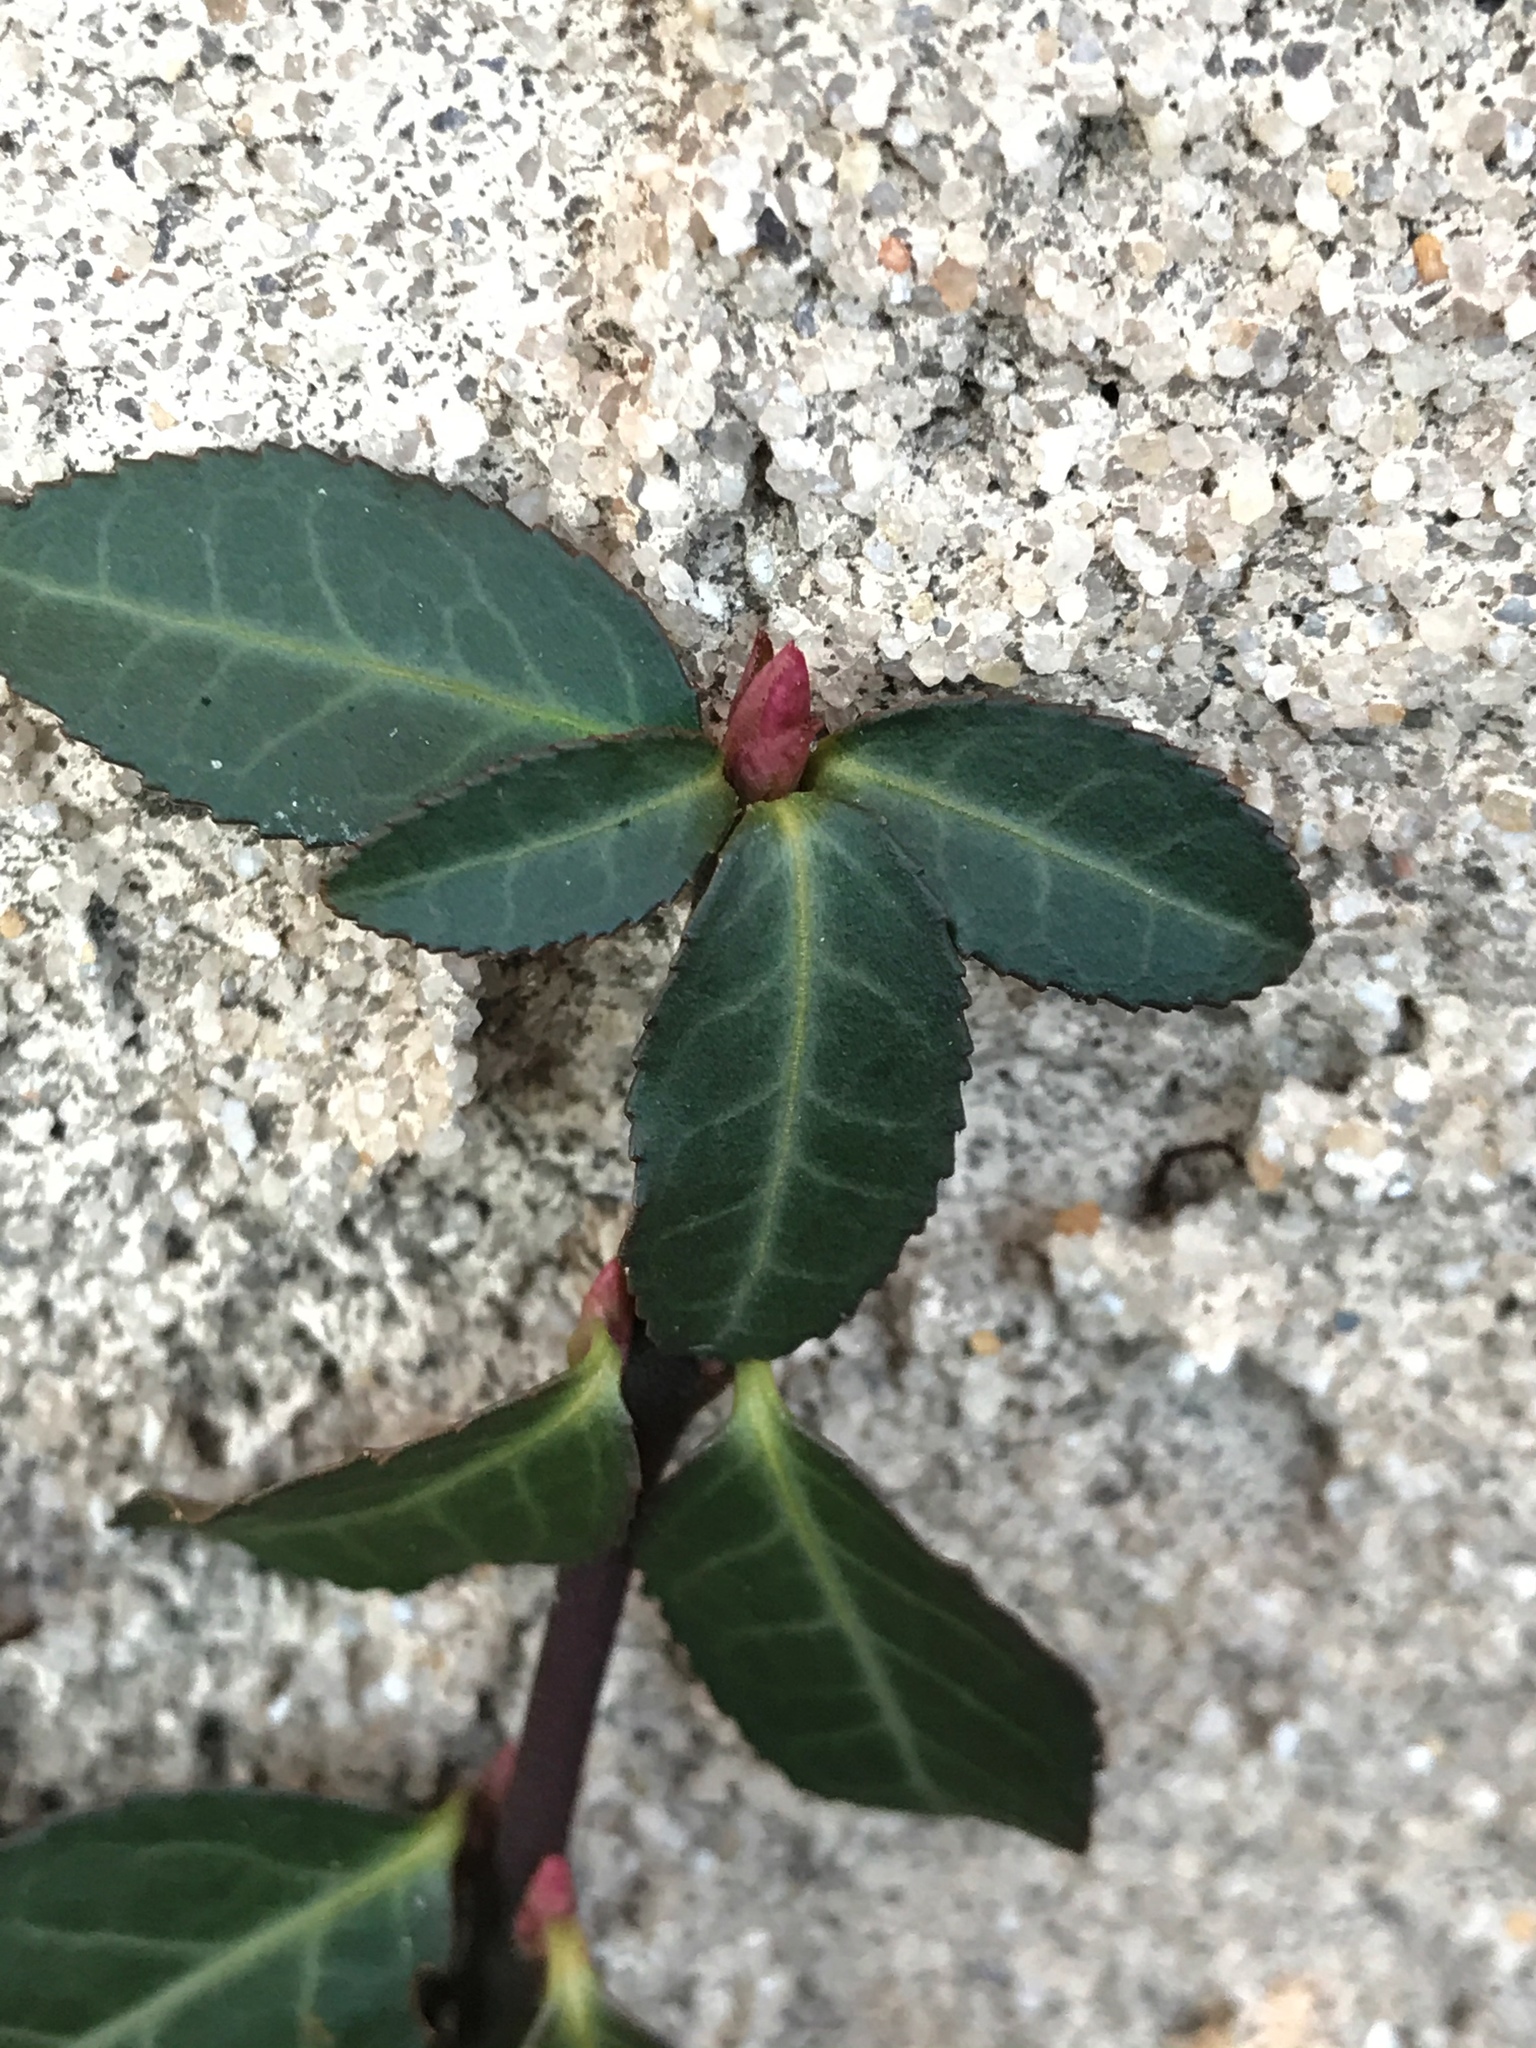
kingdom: Plantae
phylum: Tracheophyta
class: Magnoliopsida
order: Celastrales
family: Celastraceae
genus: Euonymus
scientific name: Euonymus fortunei
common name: Climbing euonymus
